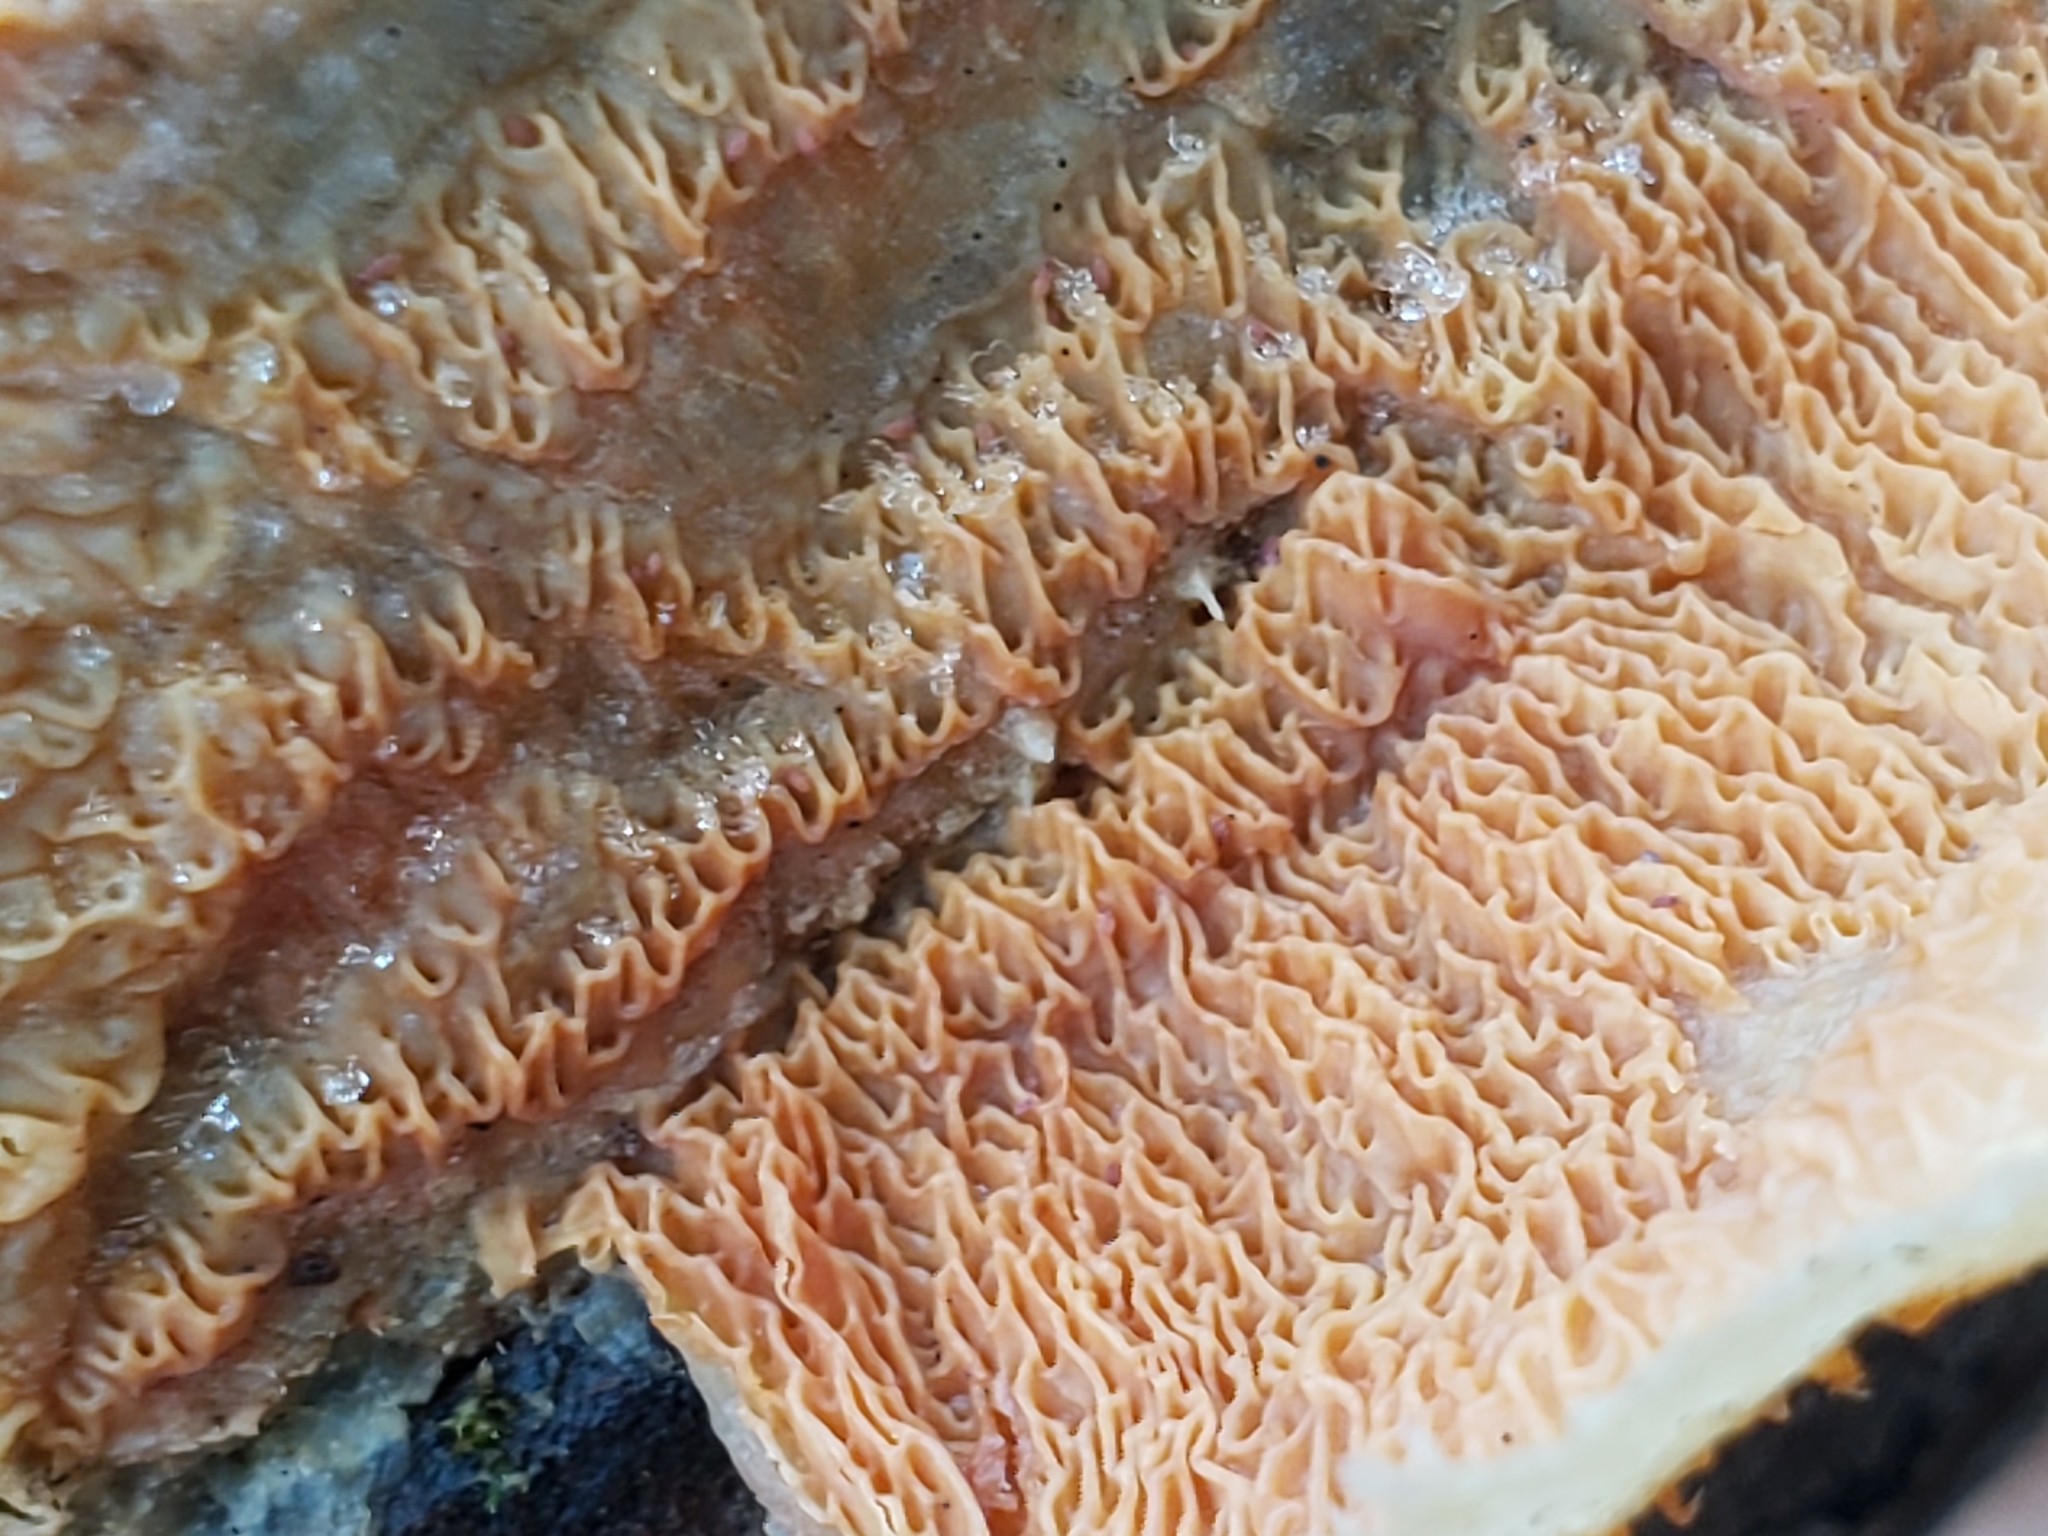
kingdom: Fungi
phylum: Basidiomycota
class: Agaricomycetes
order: Polyporales
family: Meruliaceae
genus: Phlebia
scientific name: Phlebia tremellosa
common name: Jelly rot
